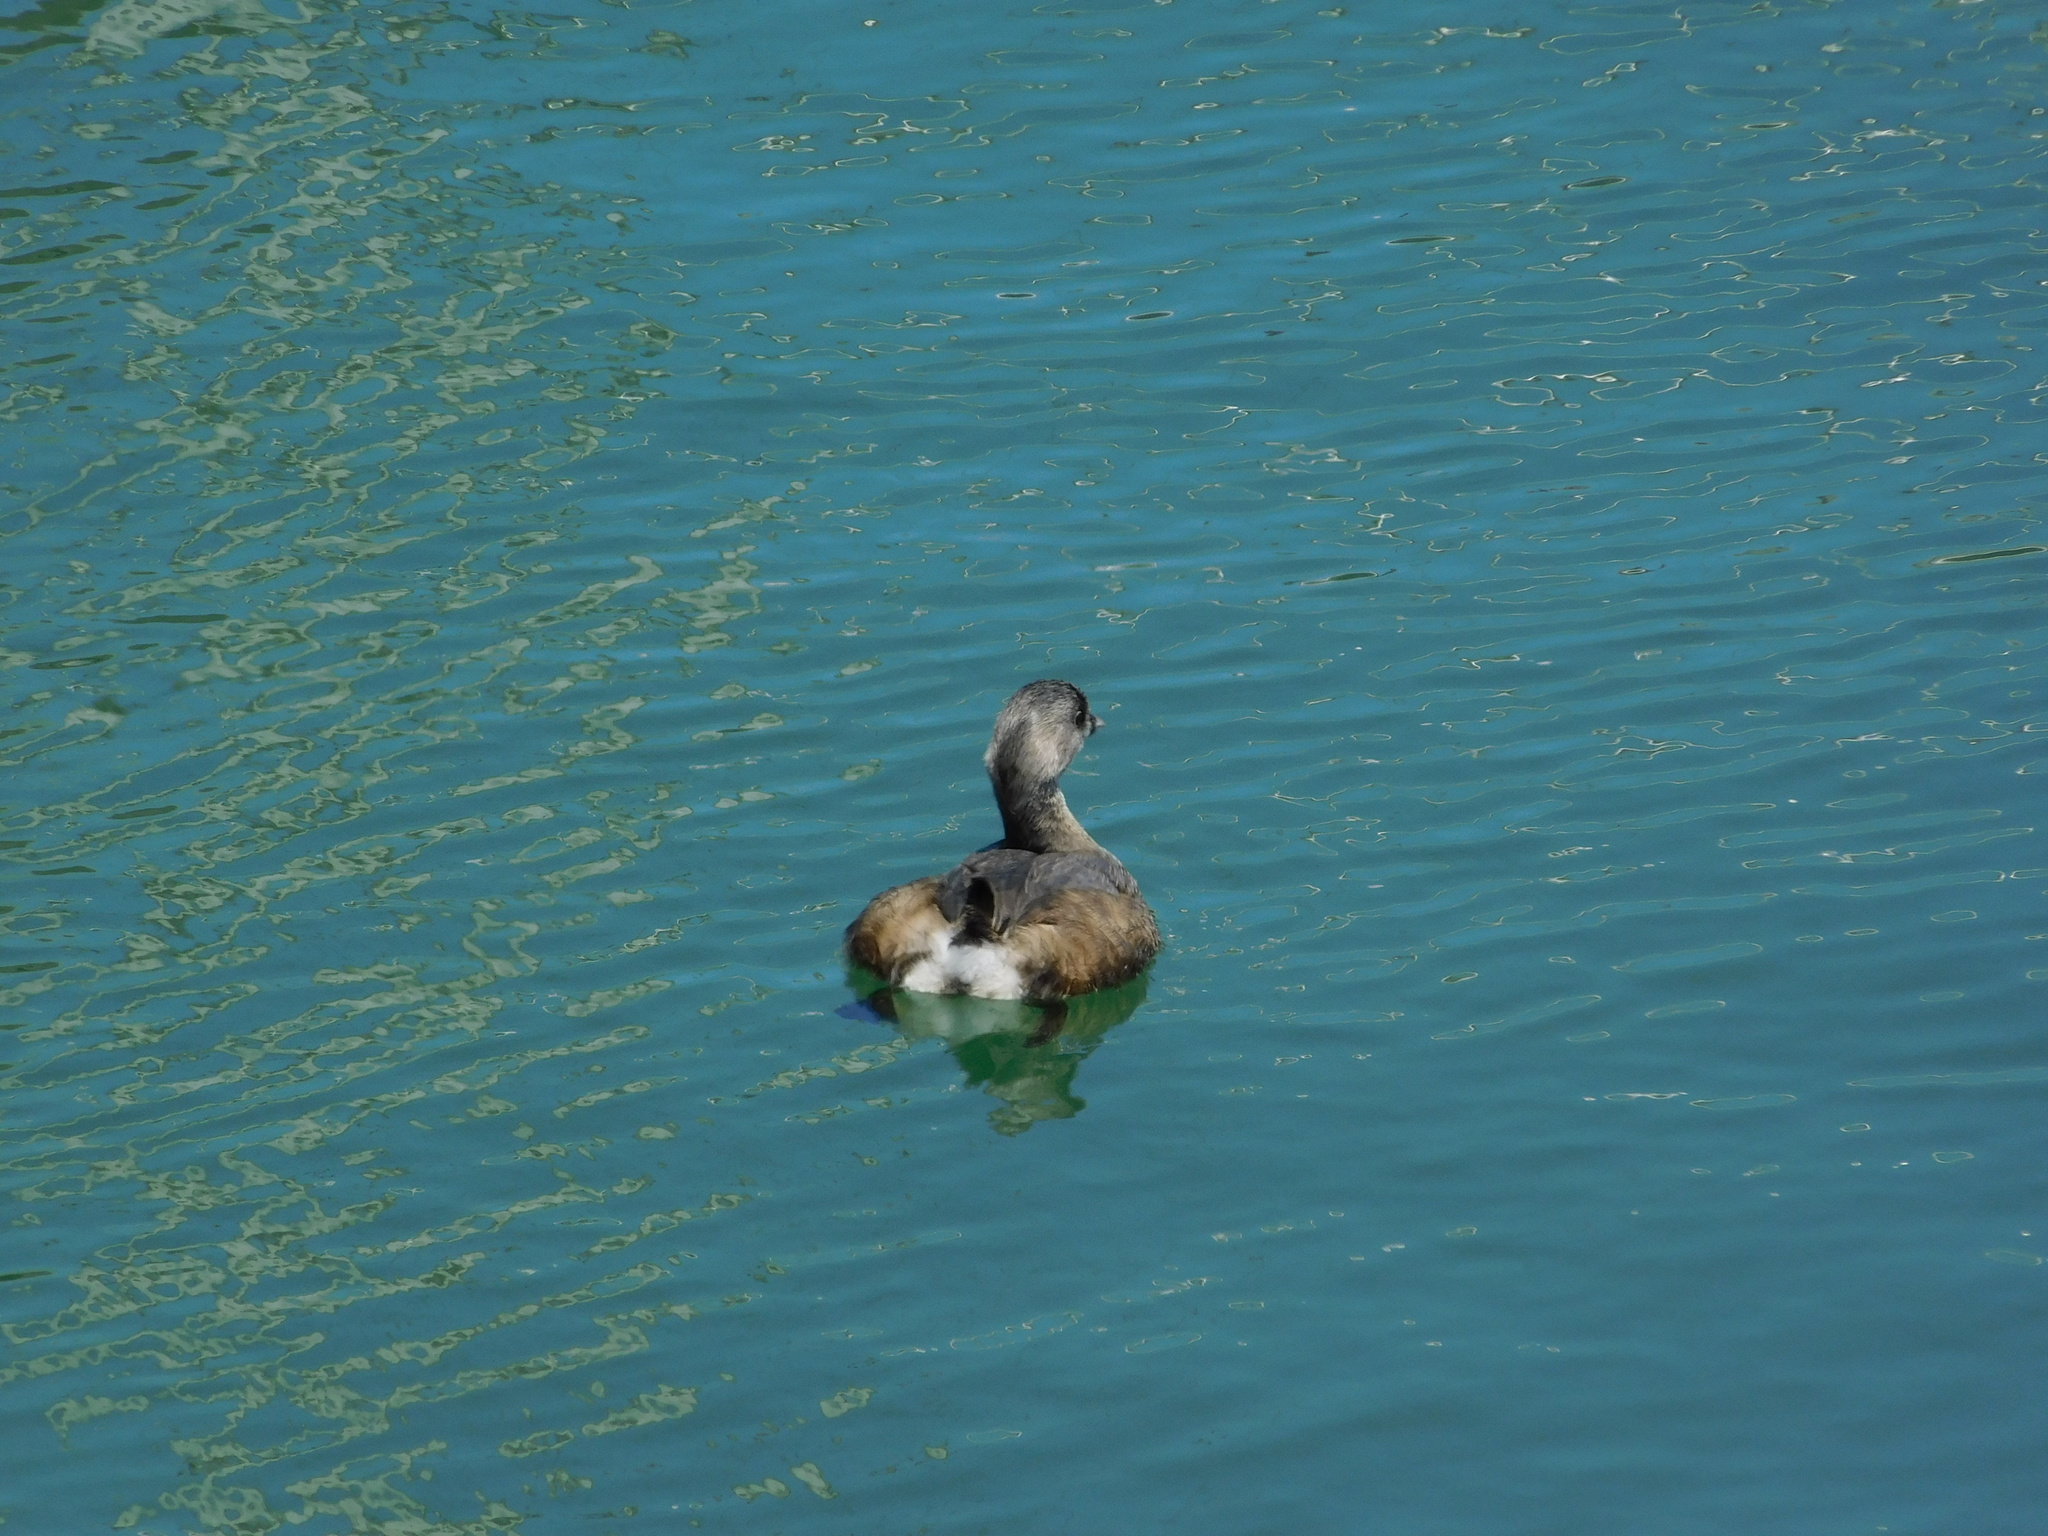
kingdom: Animalia
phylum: Chordata
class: Aves
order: Podicipediformes
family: Podicipedidae
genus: Podilymbus
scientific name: Podilymbus podiceps
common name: Pied-billed grebe
